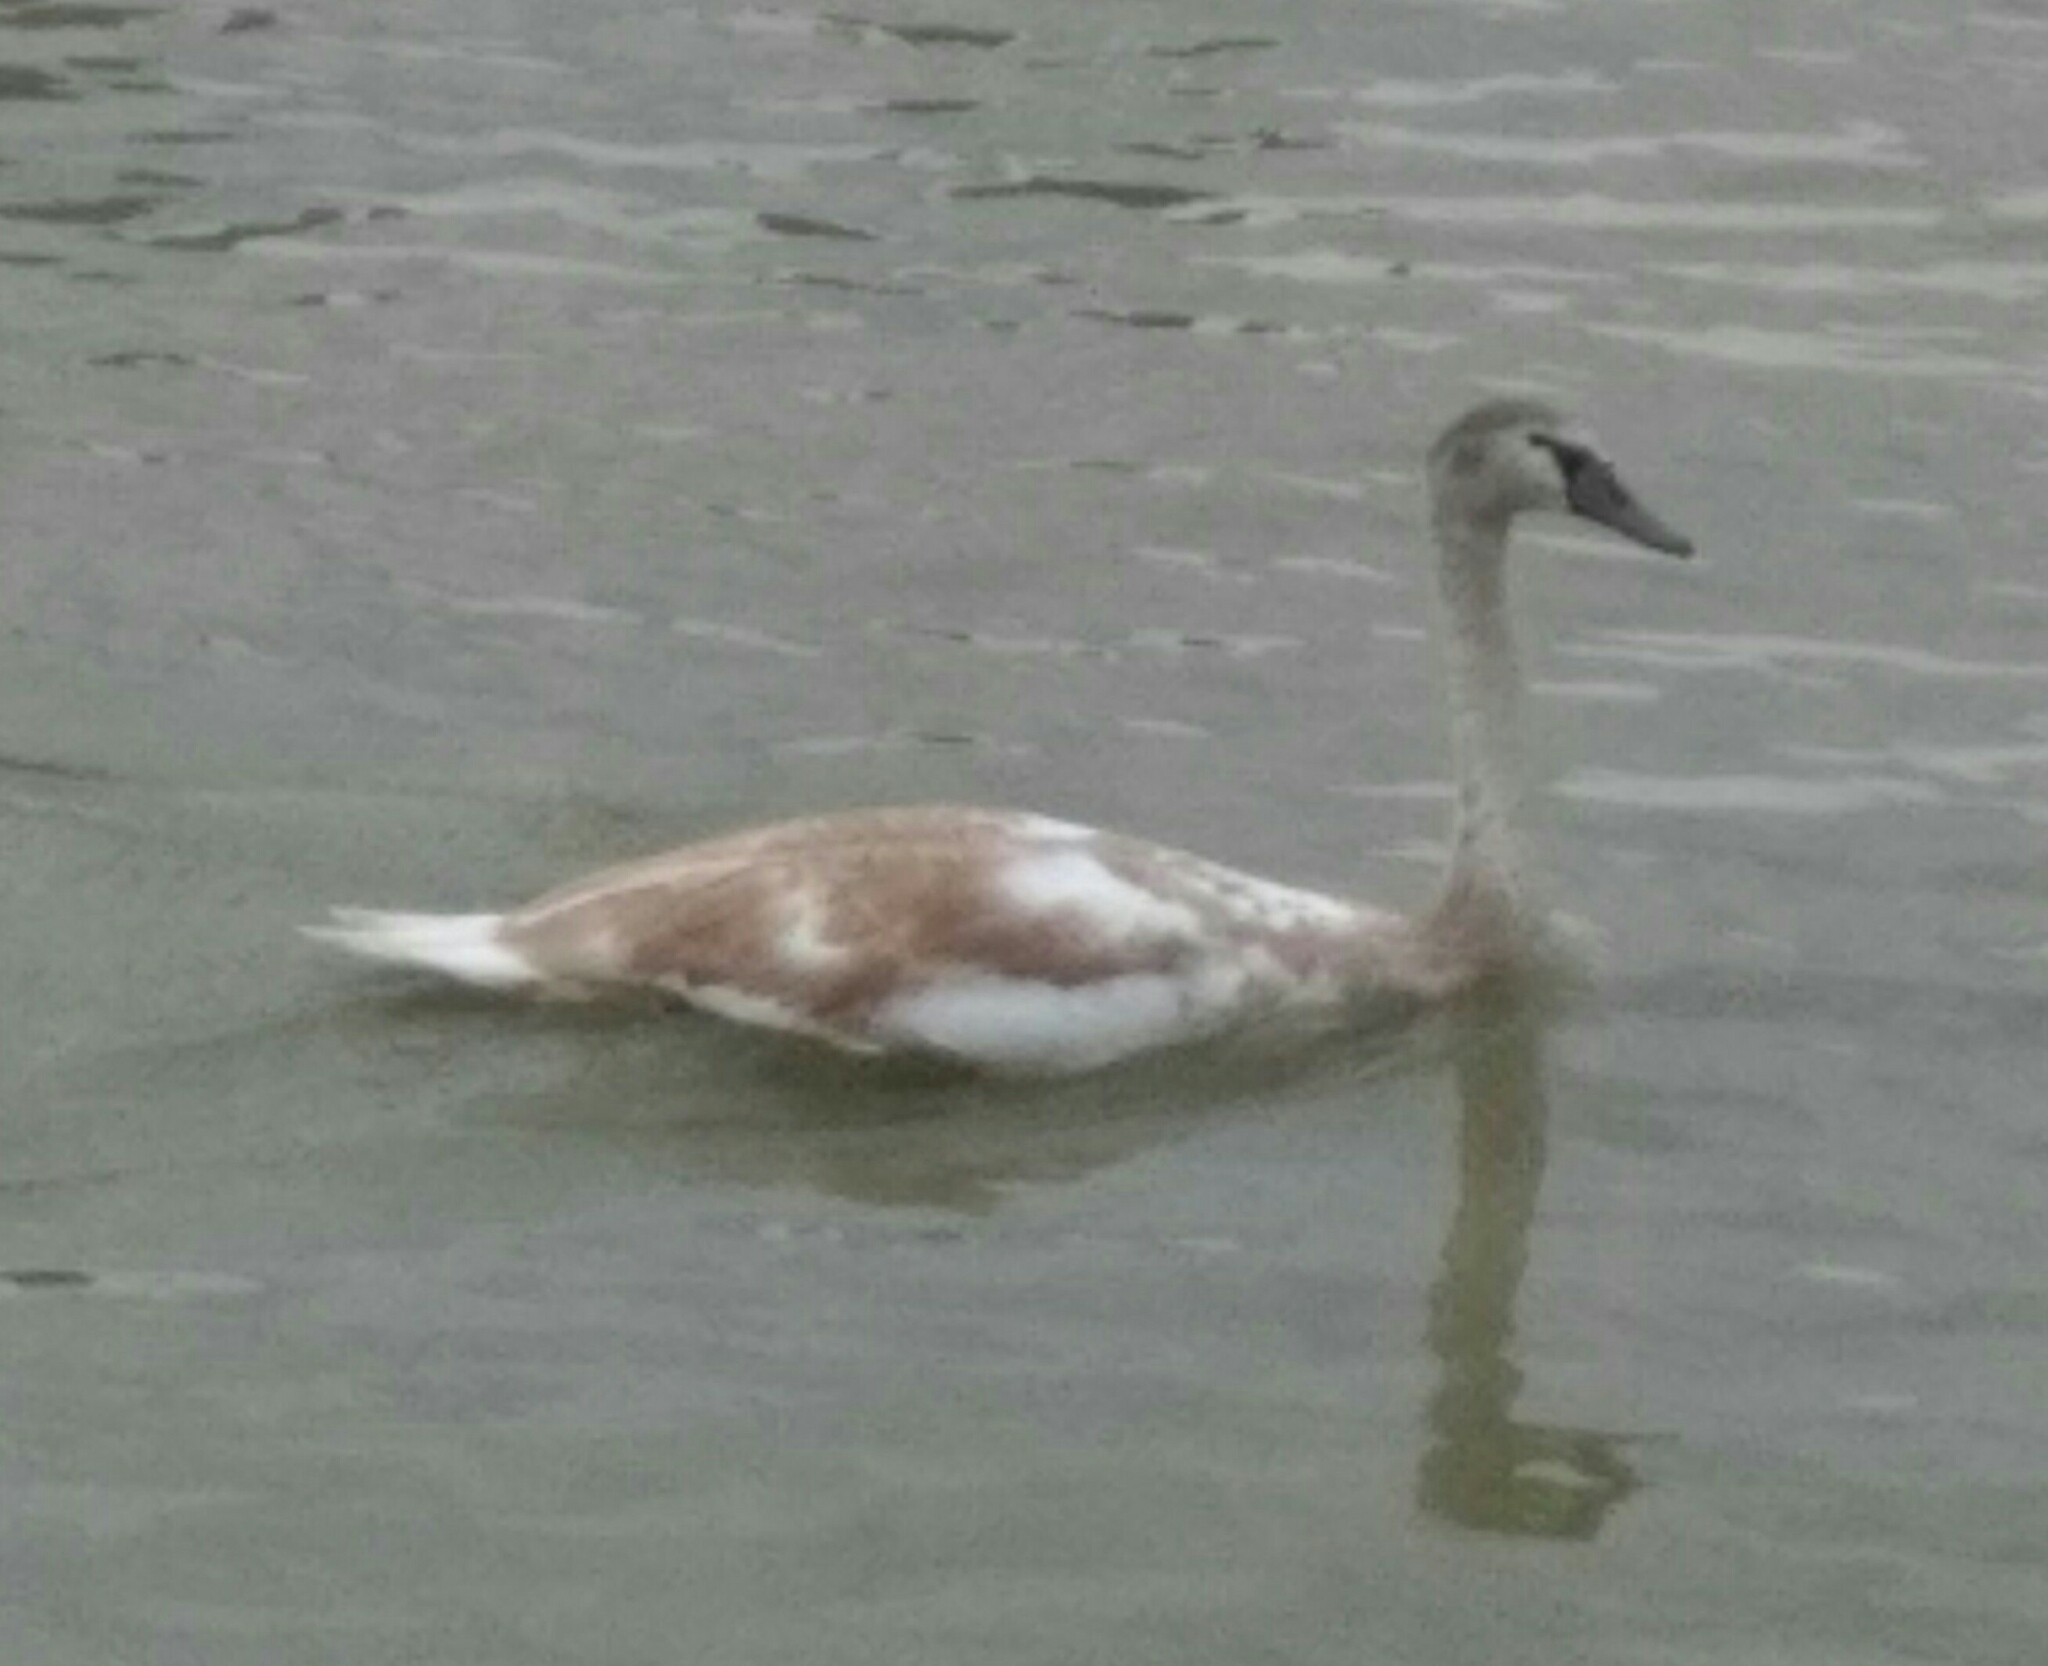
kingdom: Animalia
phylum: Chordata
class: Aves
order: Anseriformes
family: Anatidae
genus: Cygnus
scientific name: Cygnus olor
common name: Mute swan
